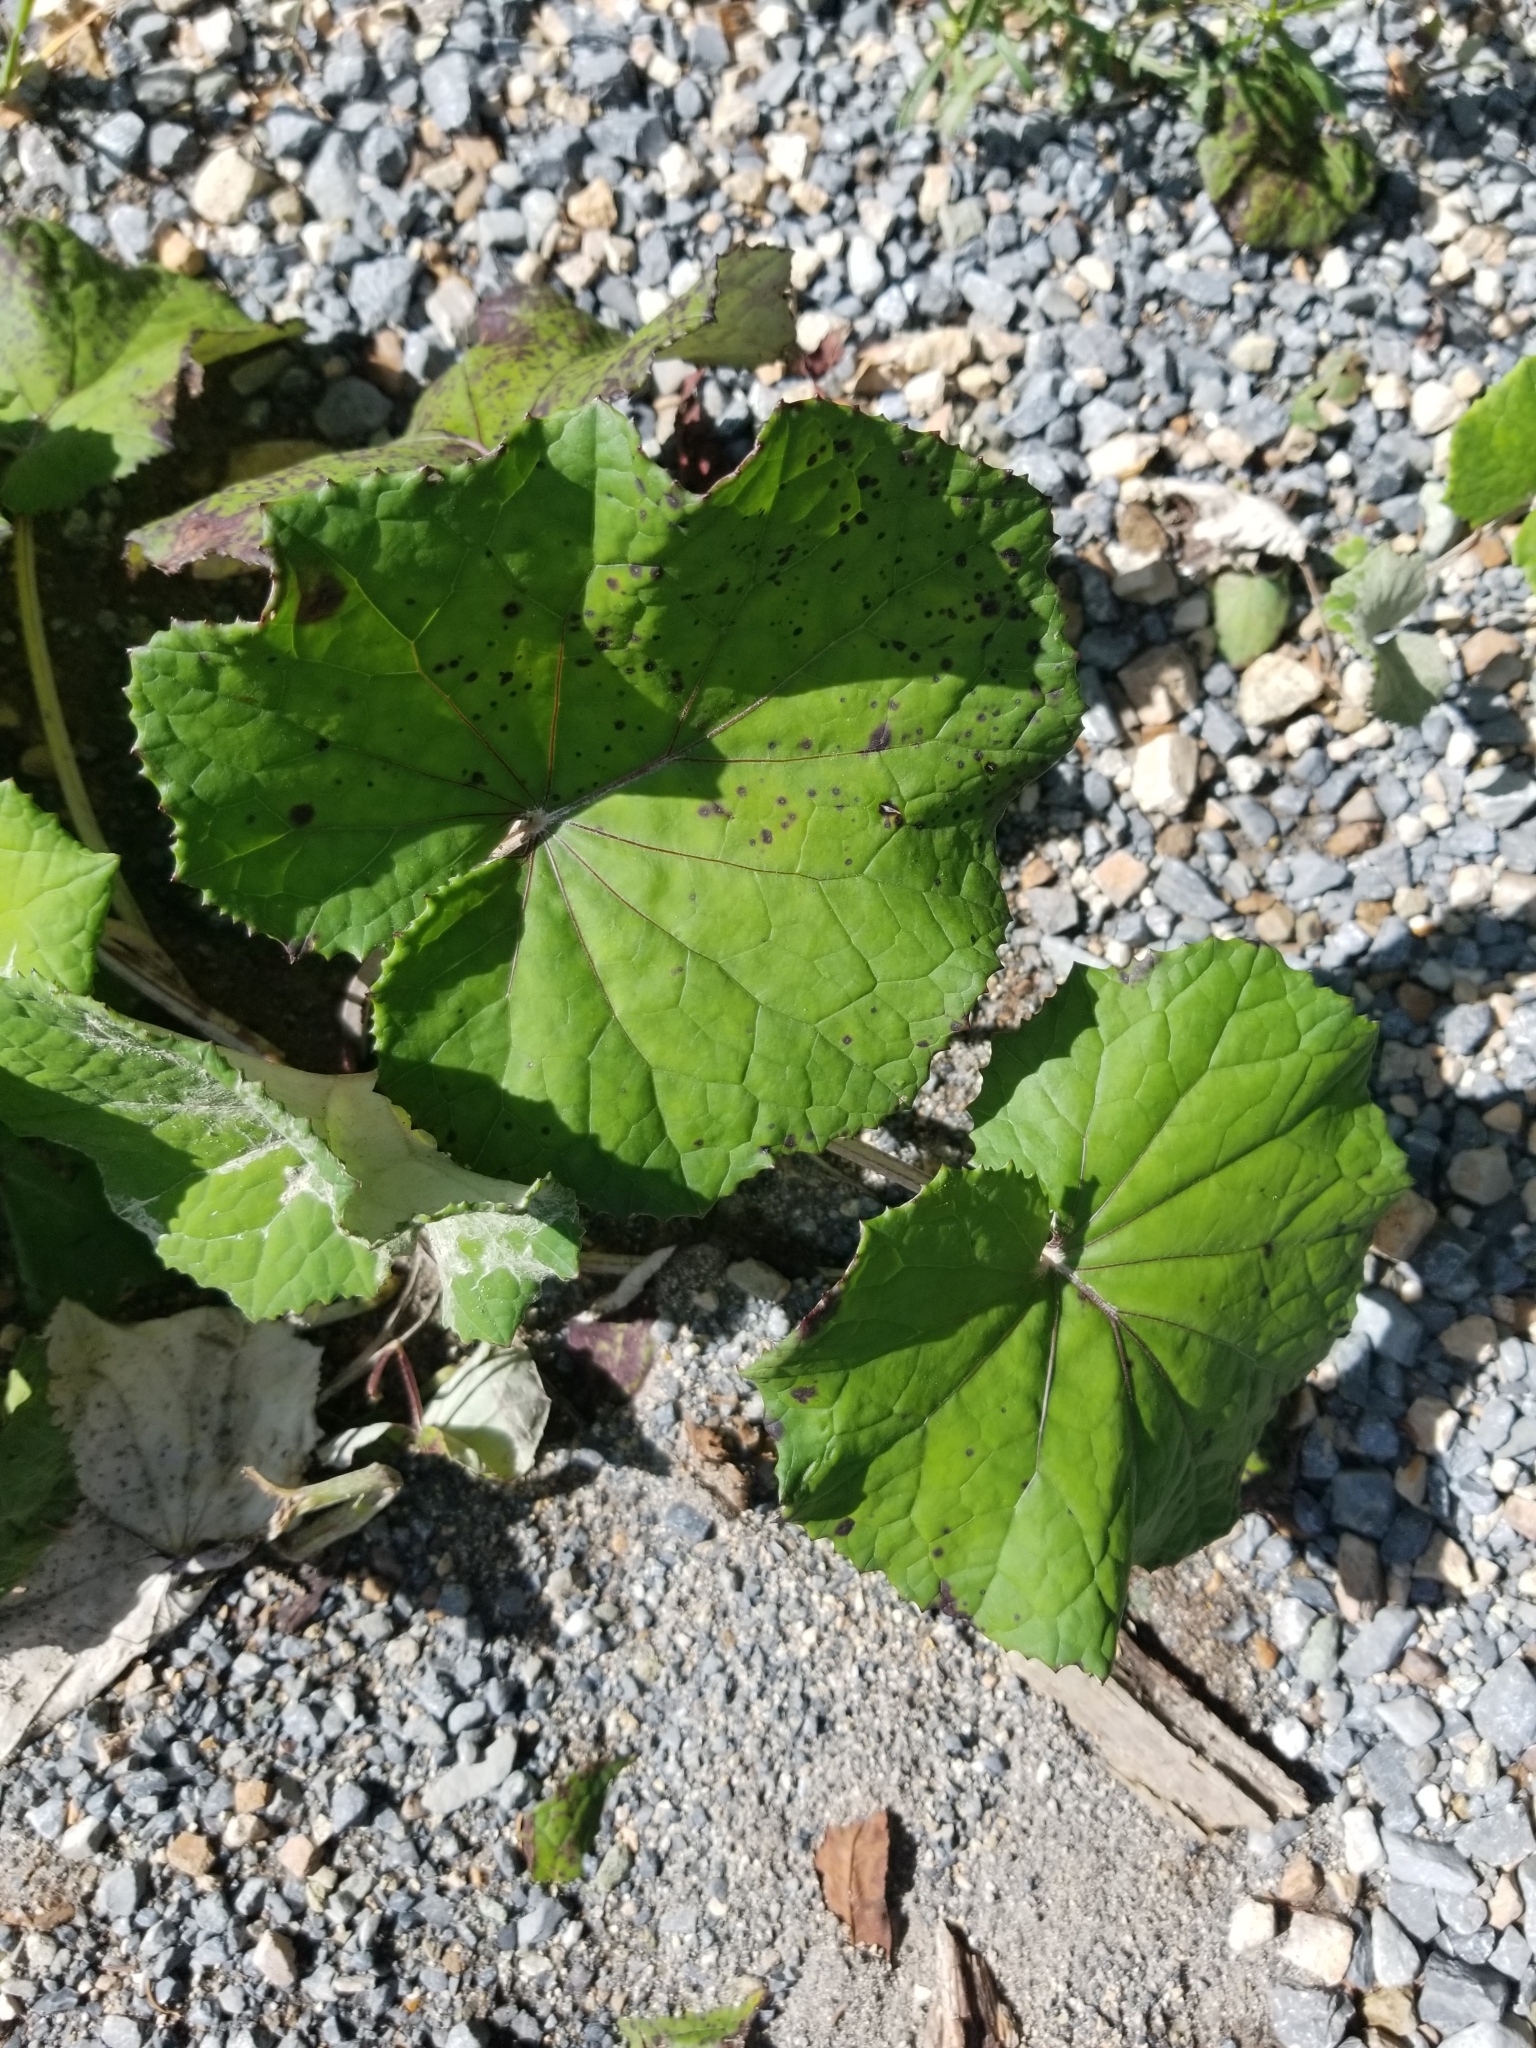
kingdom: Plantae
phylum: Tracheophyta
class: Magnoliopsida
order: Asterales
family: Asteraceae
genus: Tussilago
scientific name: Tussilago farfara
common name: Coltsfoot
